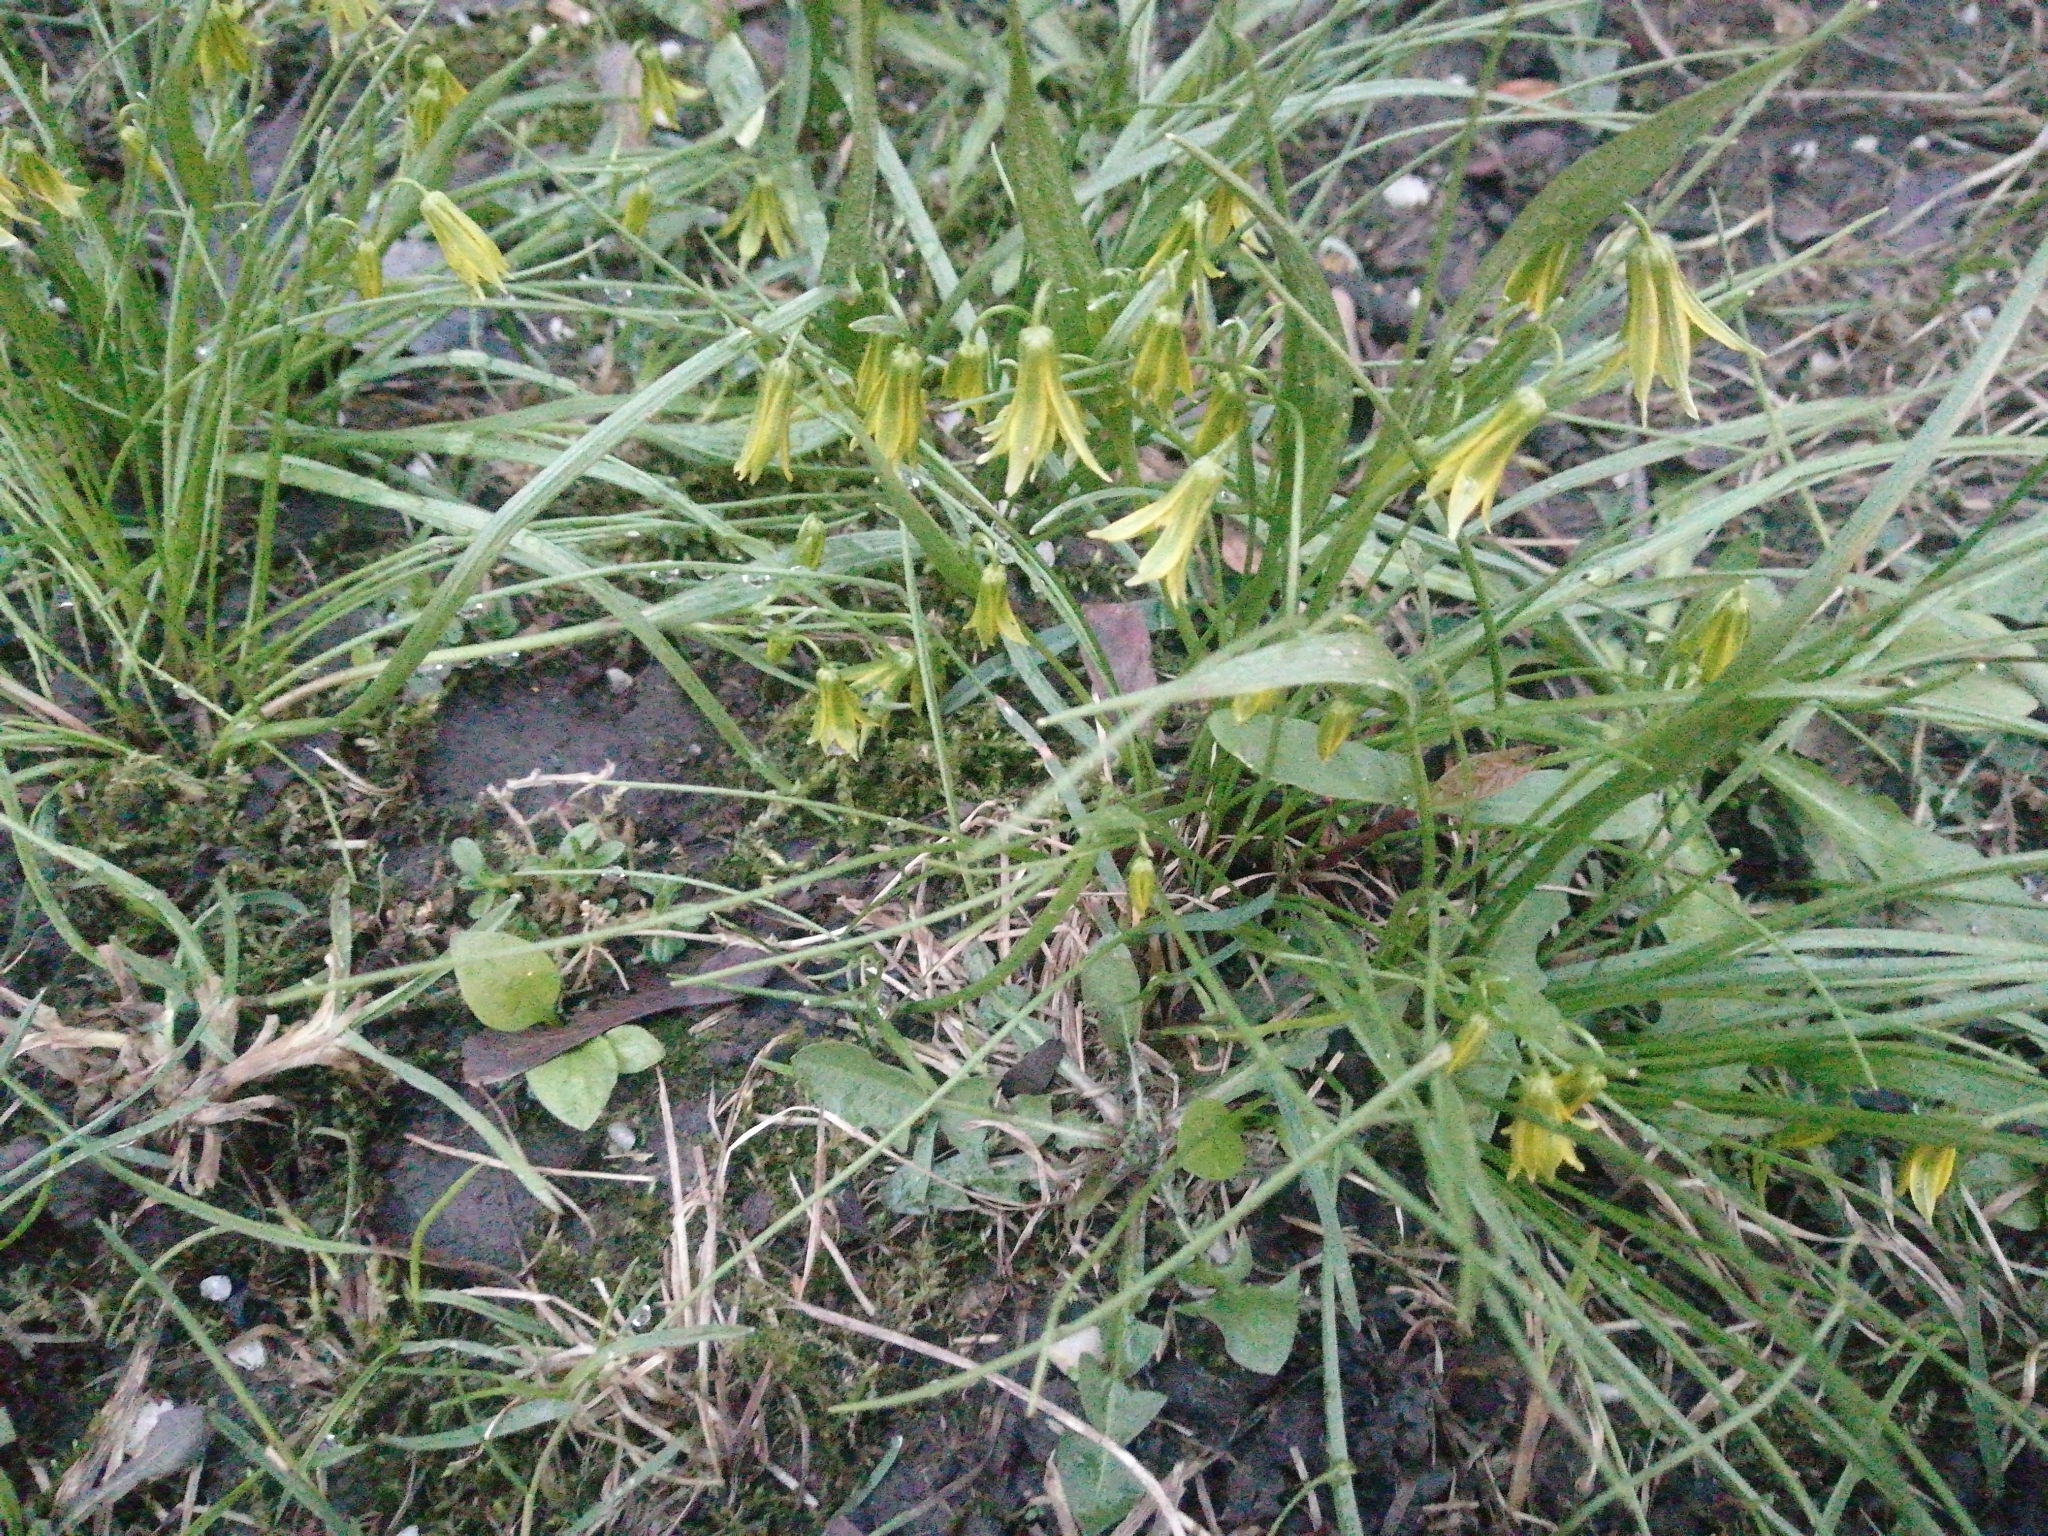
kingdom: Plantae
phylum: Tracheophyta
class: Liliopsida
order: Liliales
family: Liliaceae
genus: Gagea
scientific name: Gagea minima
